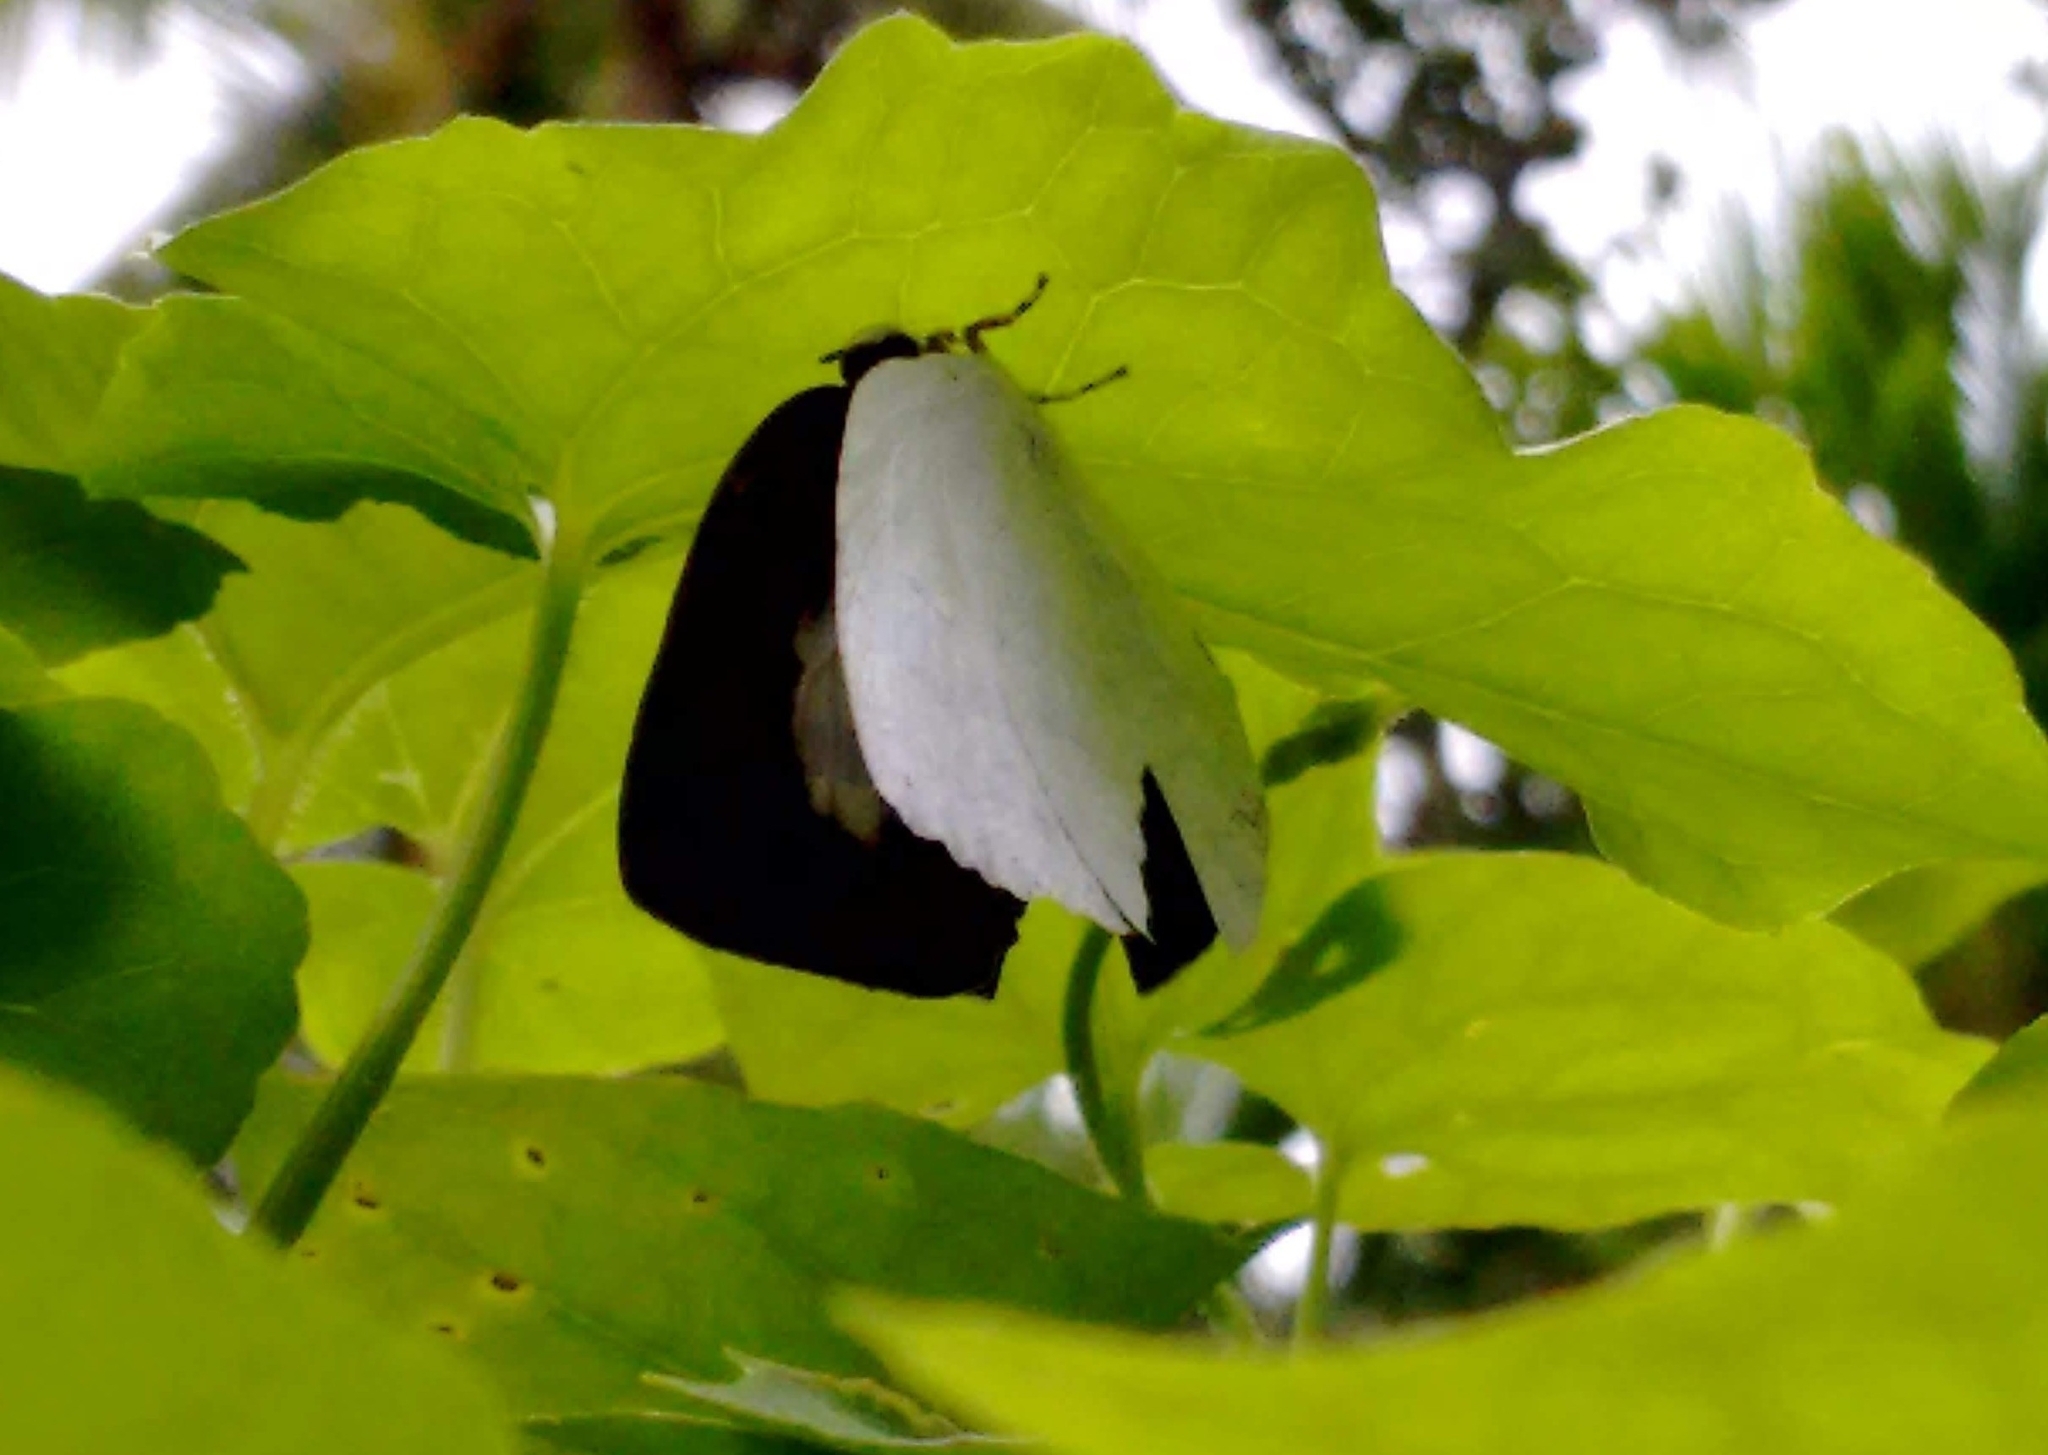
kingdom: Animalia
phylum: Arthropoda
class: Insecta
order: Lepidoptera
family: Lycaenidae
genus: Curetis
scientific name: Curetis thetis
